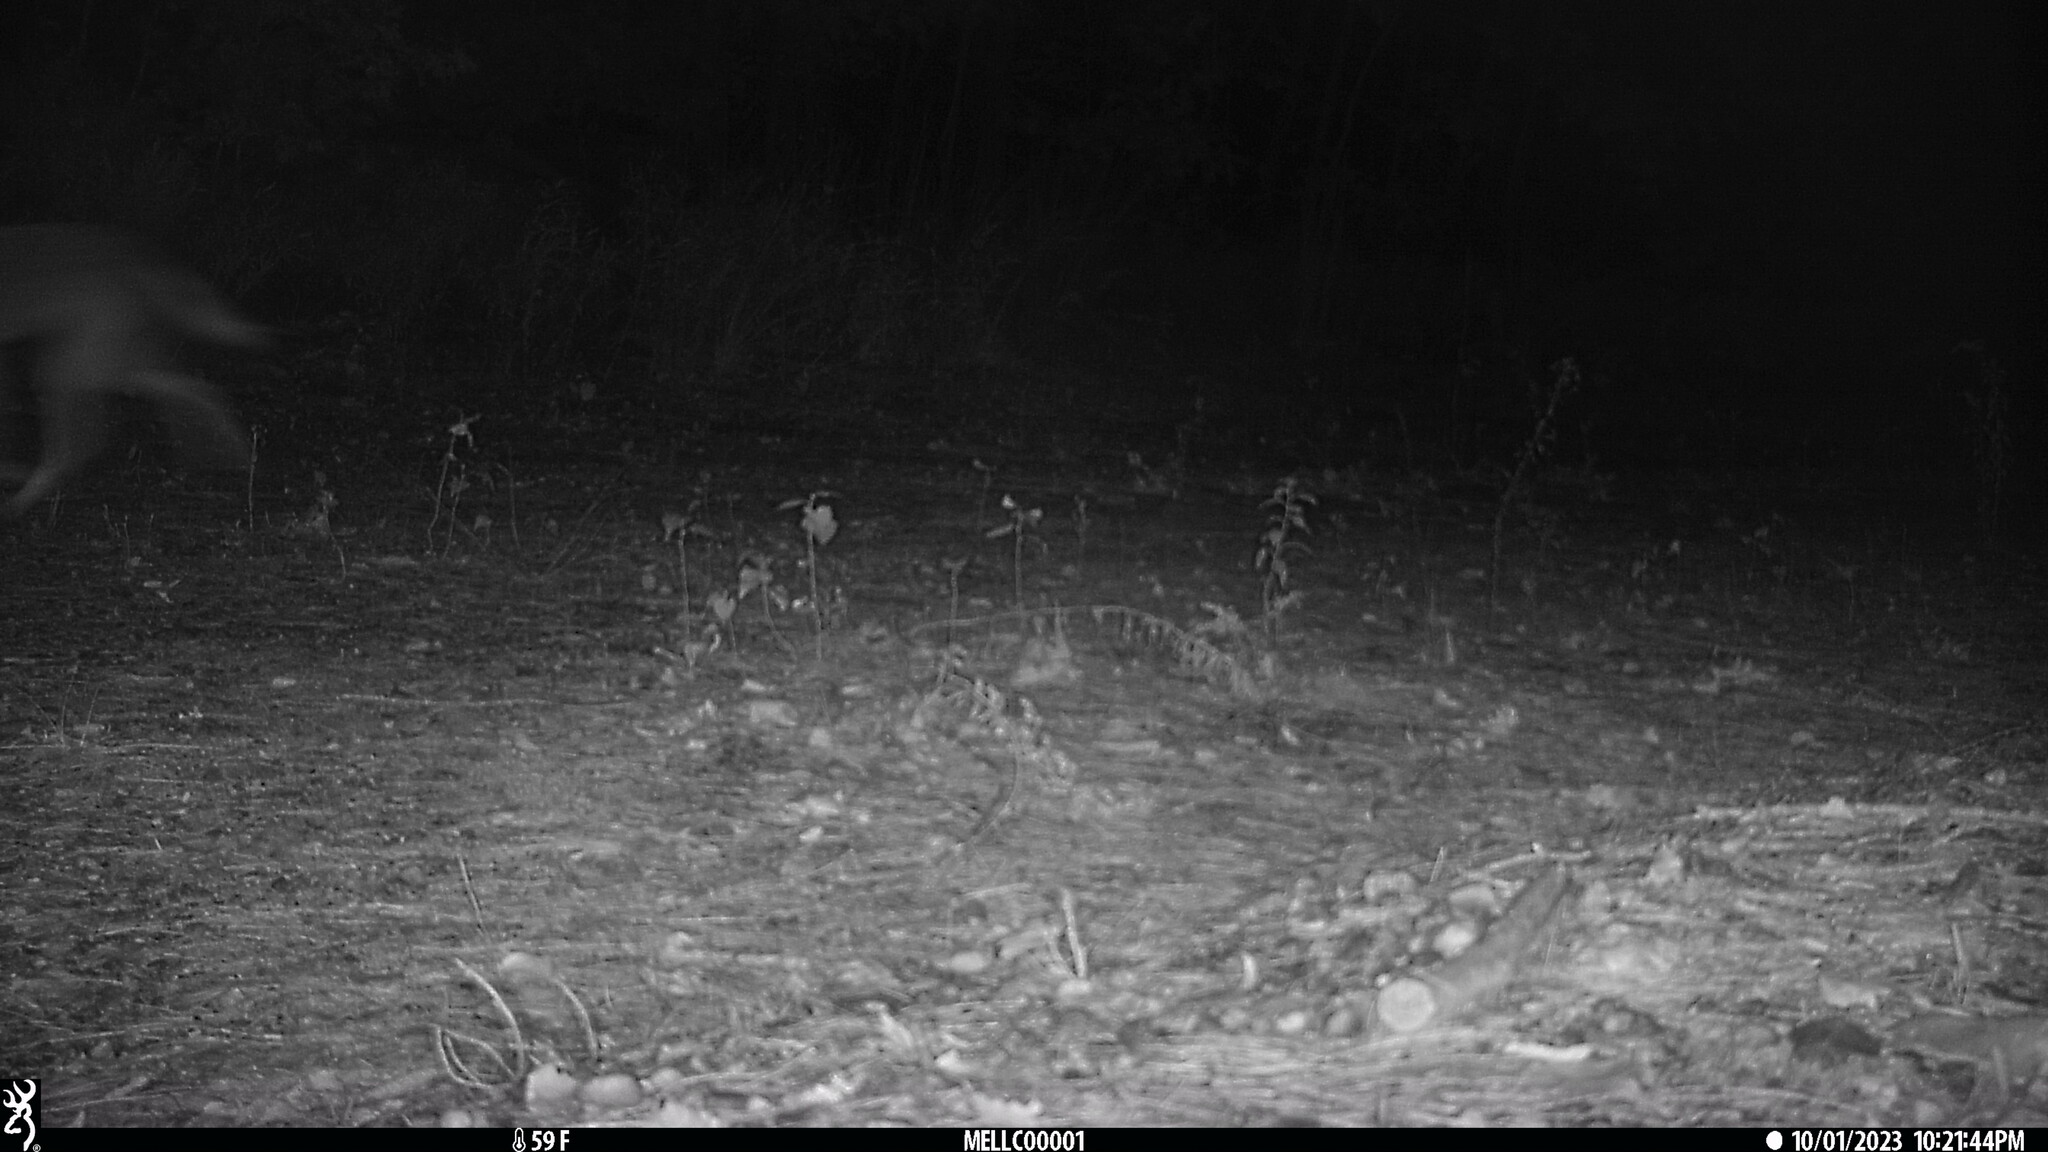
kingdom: Animalia
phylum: Chordata
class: Mammalia
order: Carnivora
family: Canidae
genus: Canis
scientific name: Canis latrans
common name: Coyote
